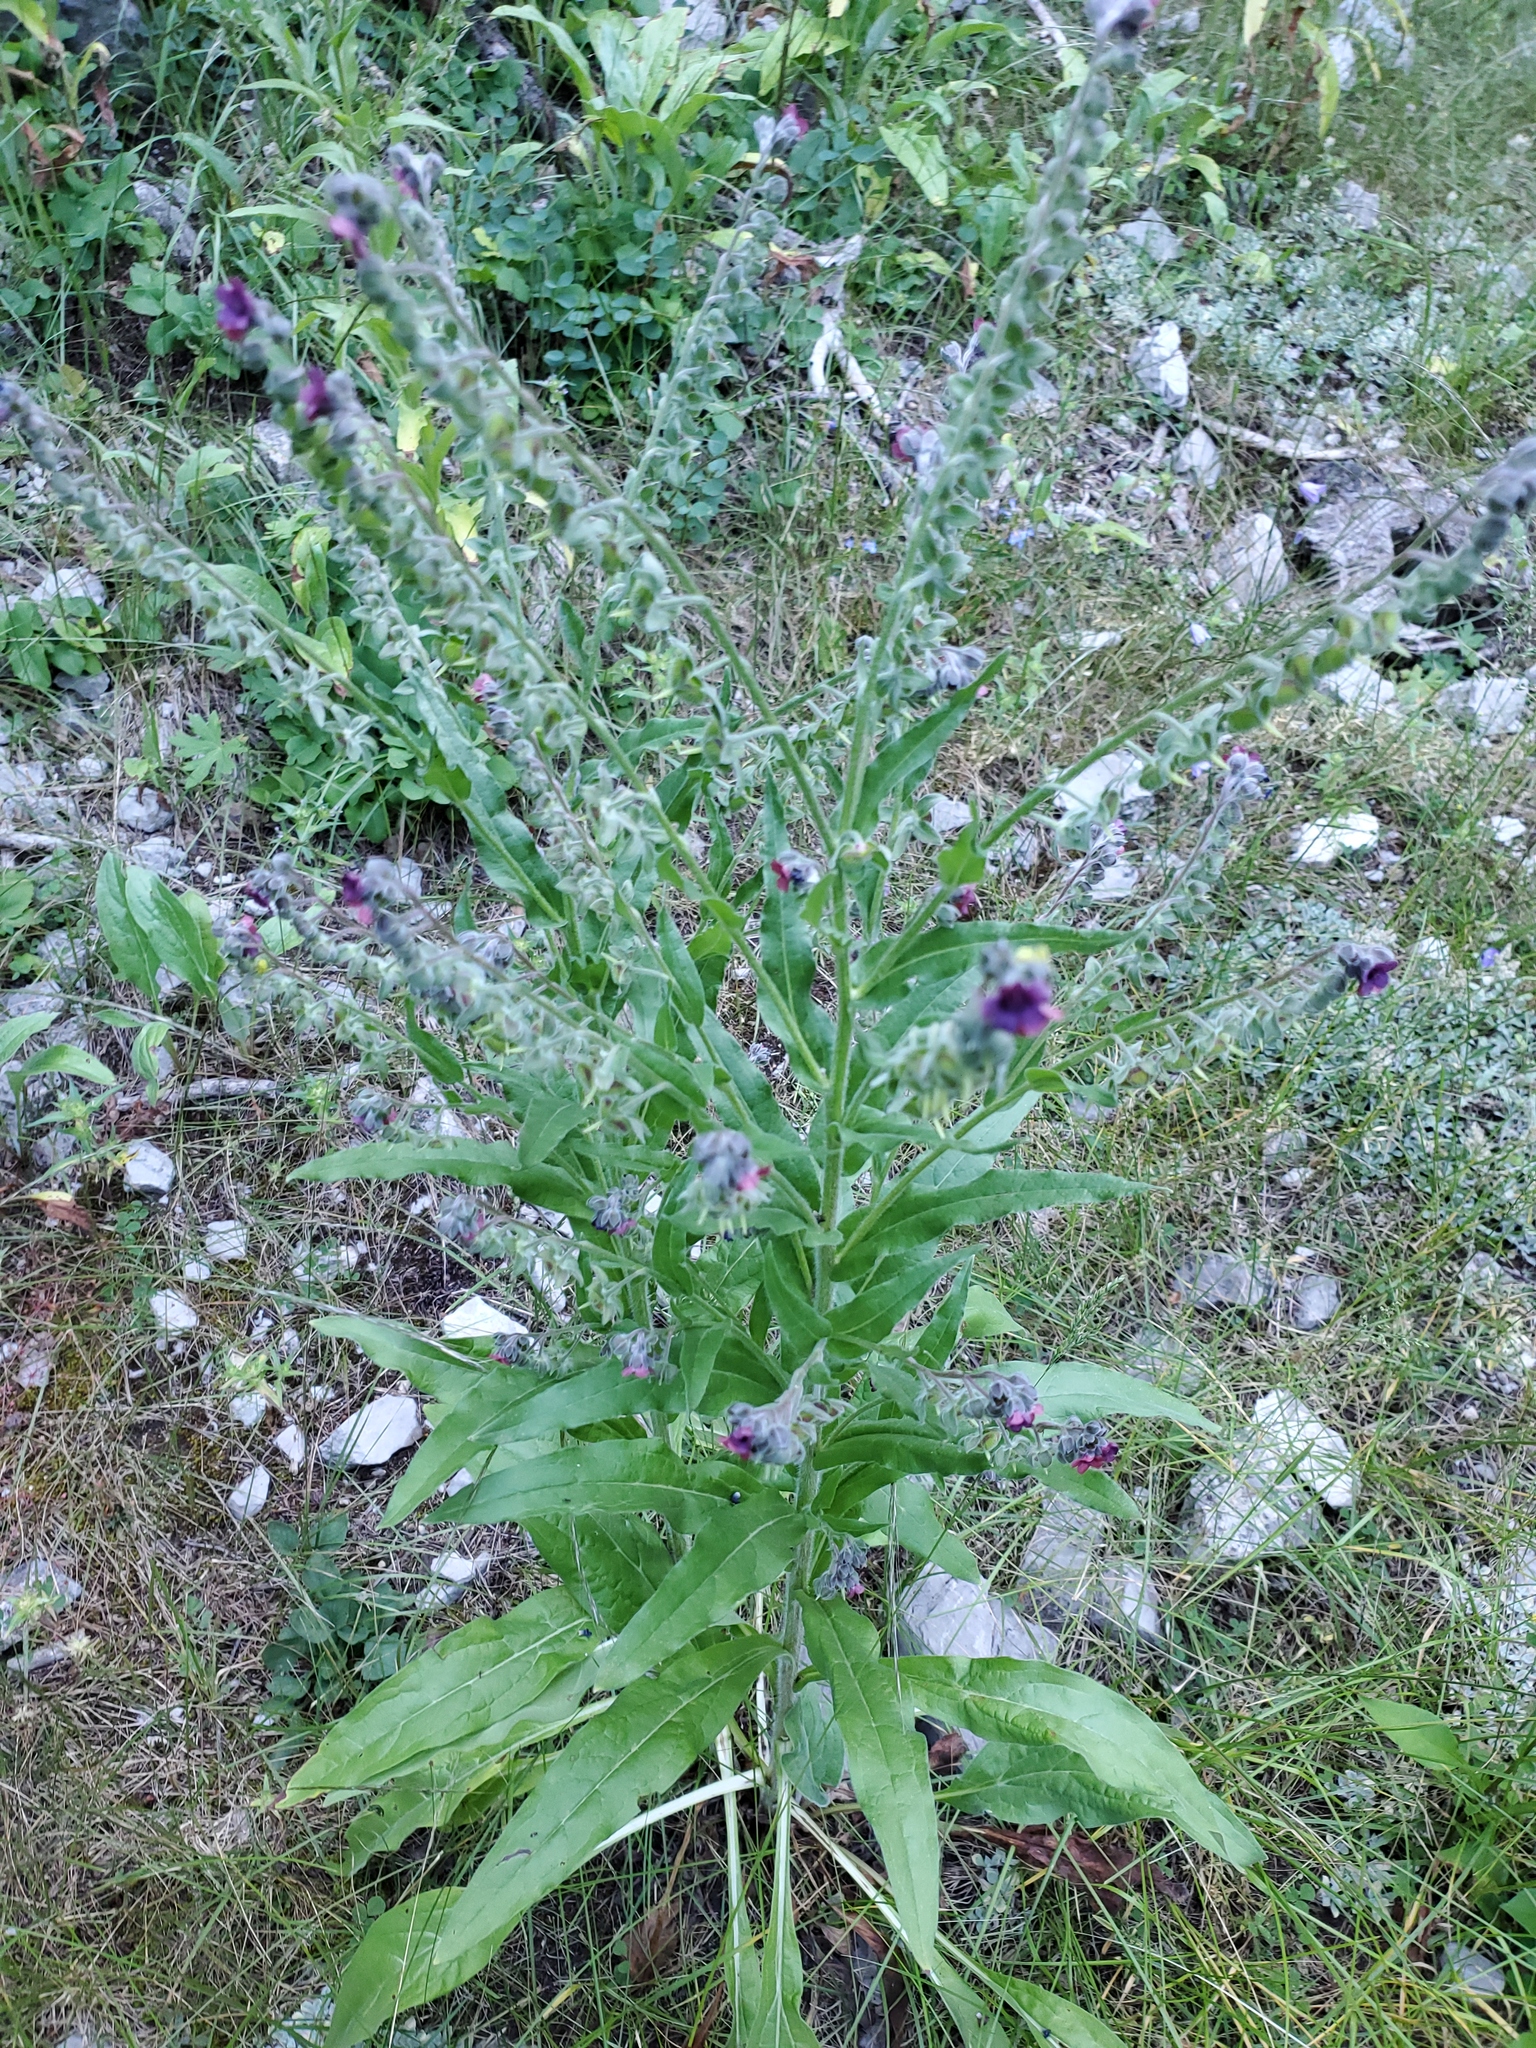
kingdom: Plantae
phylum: Tracheophyta
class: Magnoliopsida
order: Boraginales
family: Boraginaceae
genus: Cynoglossum
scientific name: Cynoglossum officinale
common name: Hound's-tongue
